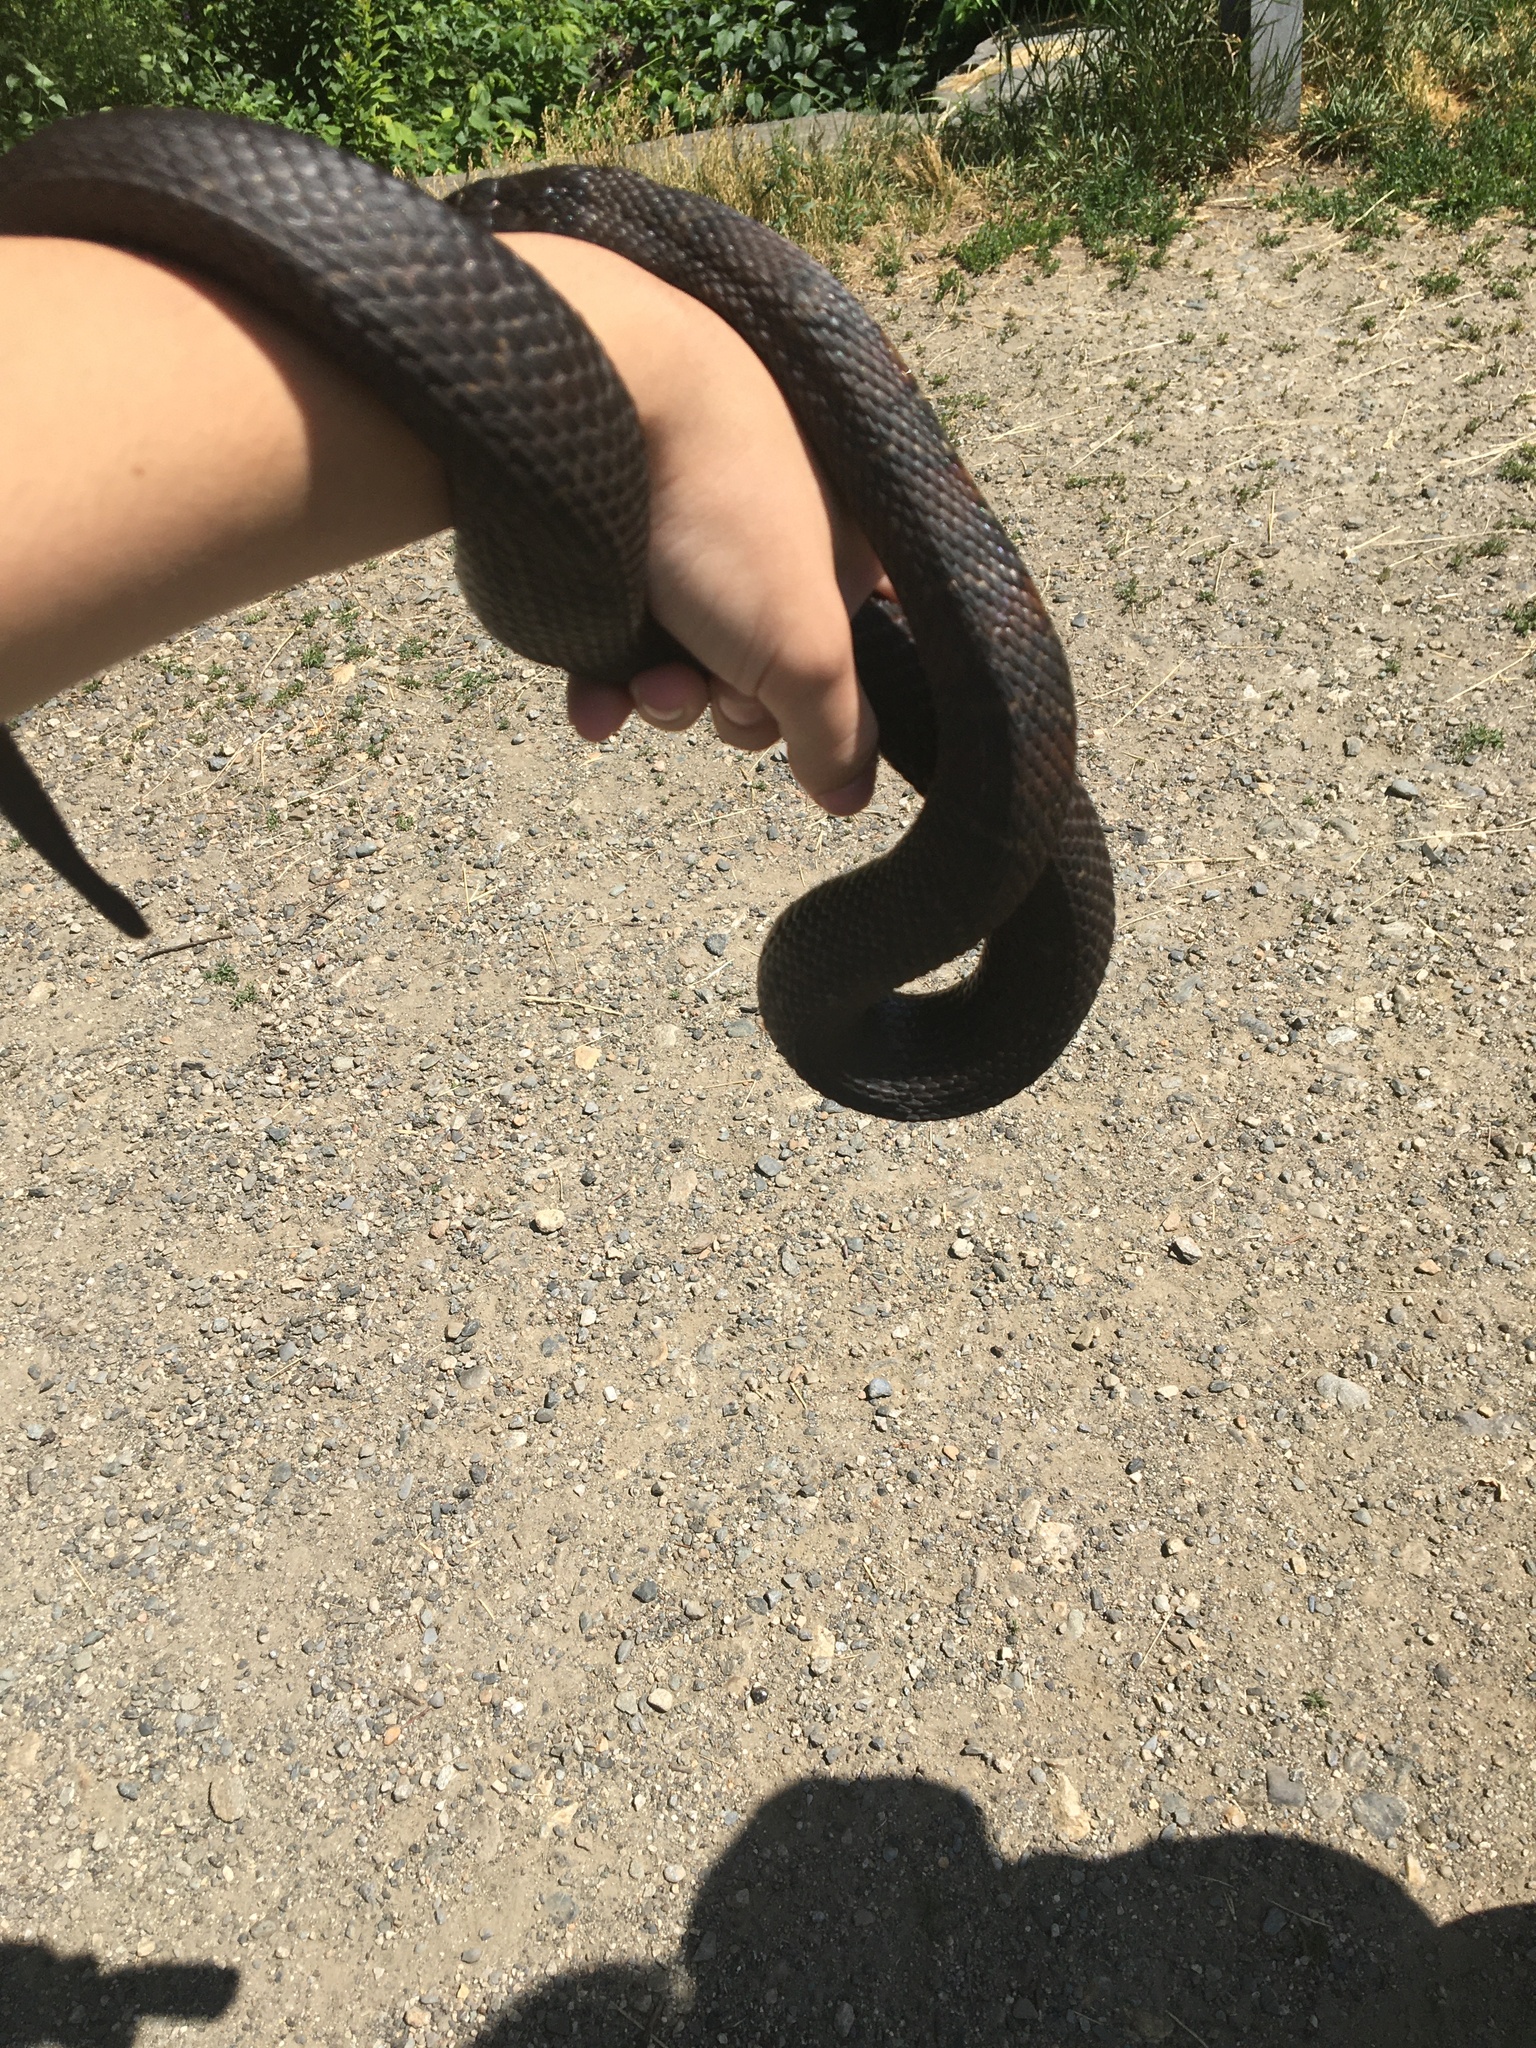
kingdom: Animalia
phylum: Chordata
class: Squamata
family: Colubridae
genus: Nerodia
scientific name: Nerodia sipedon
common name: Northern water snake
